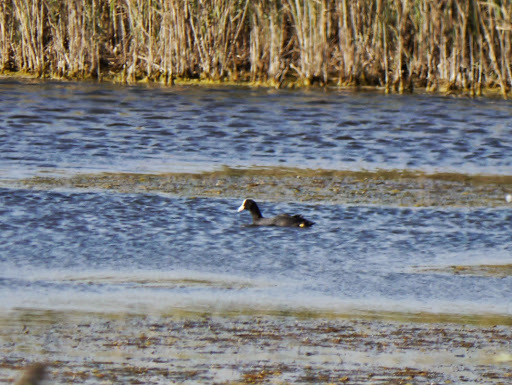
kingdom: Animalia
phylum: Chordata
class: Aves
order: Gruiformes
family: Rallidae
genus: Fulica
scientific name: Fulica atra
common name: Eurasian coot
